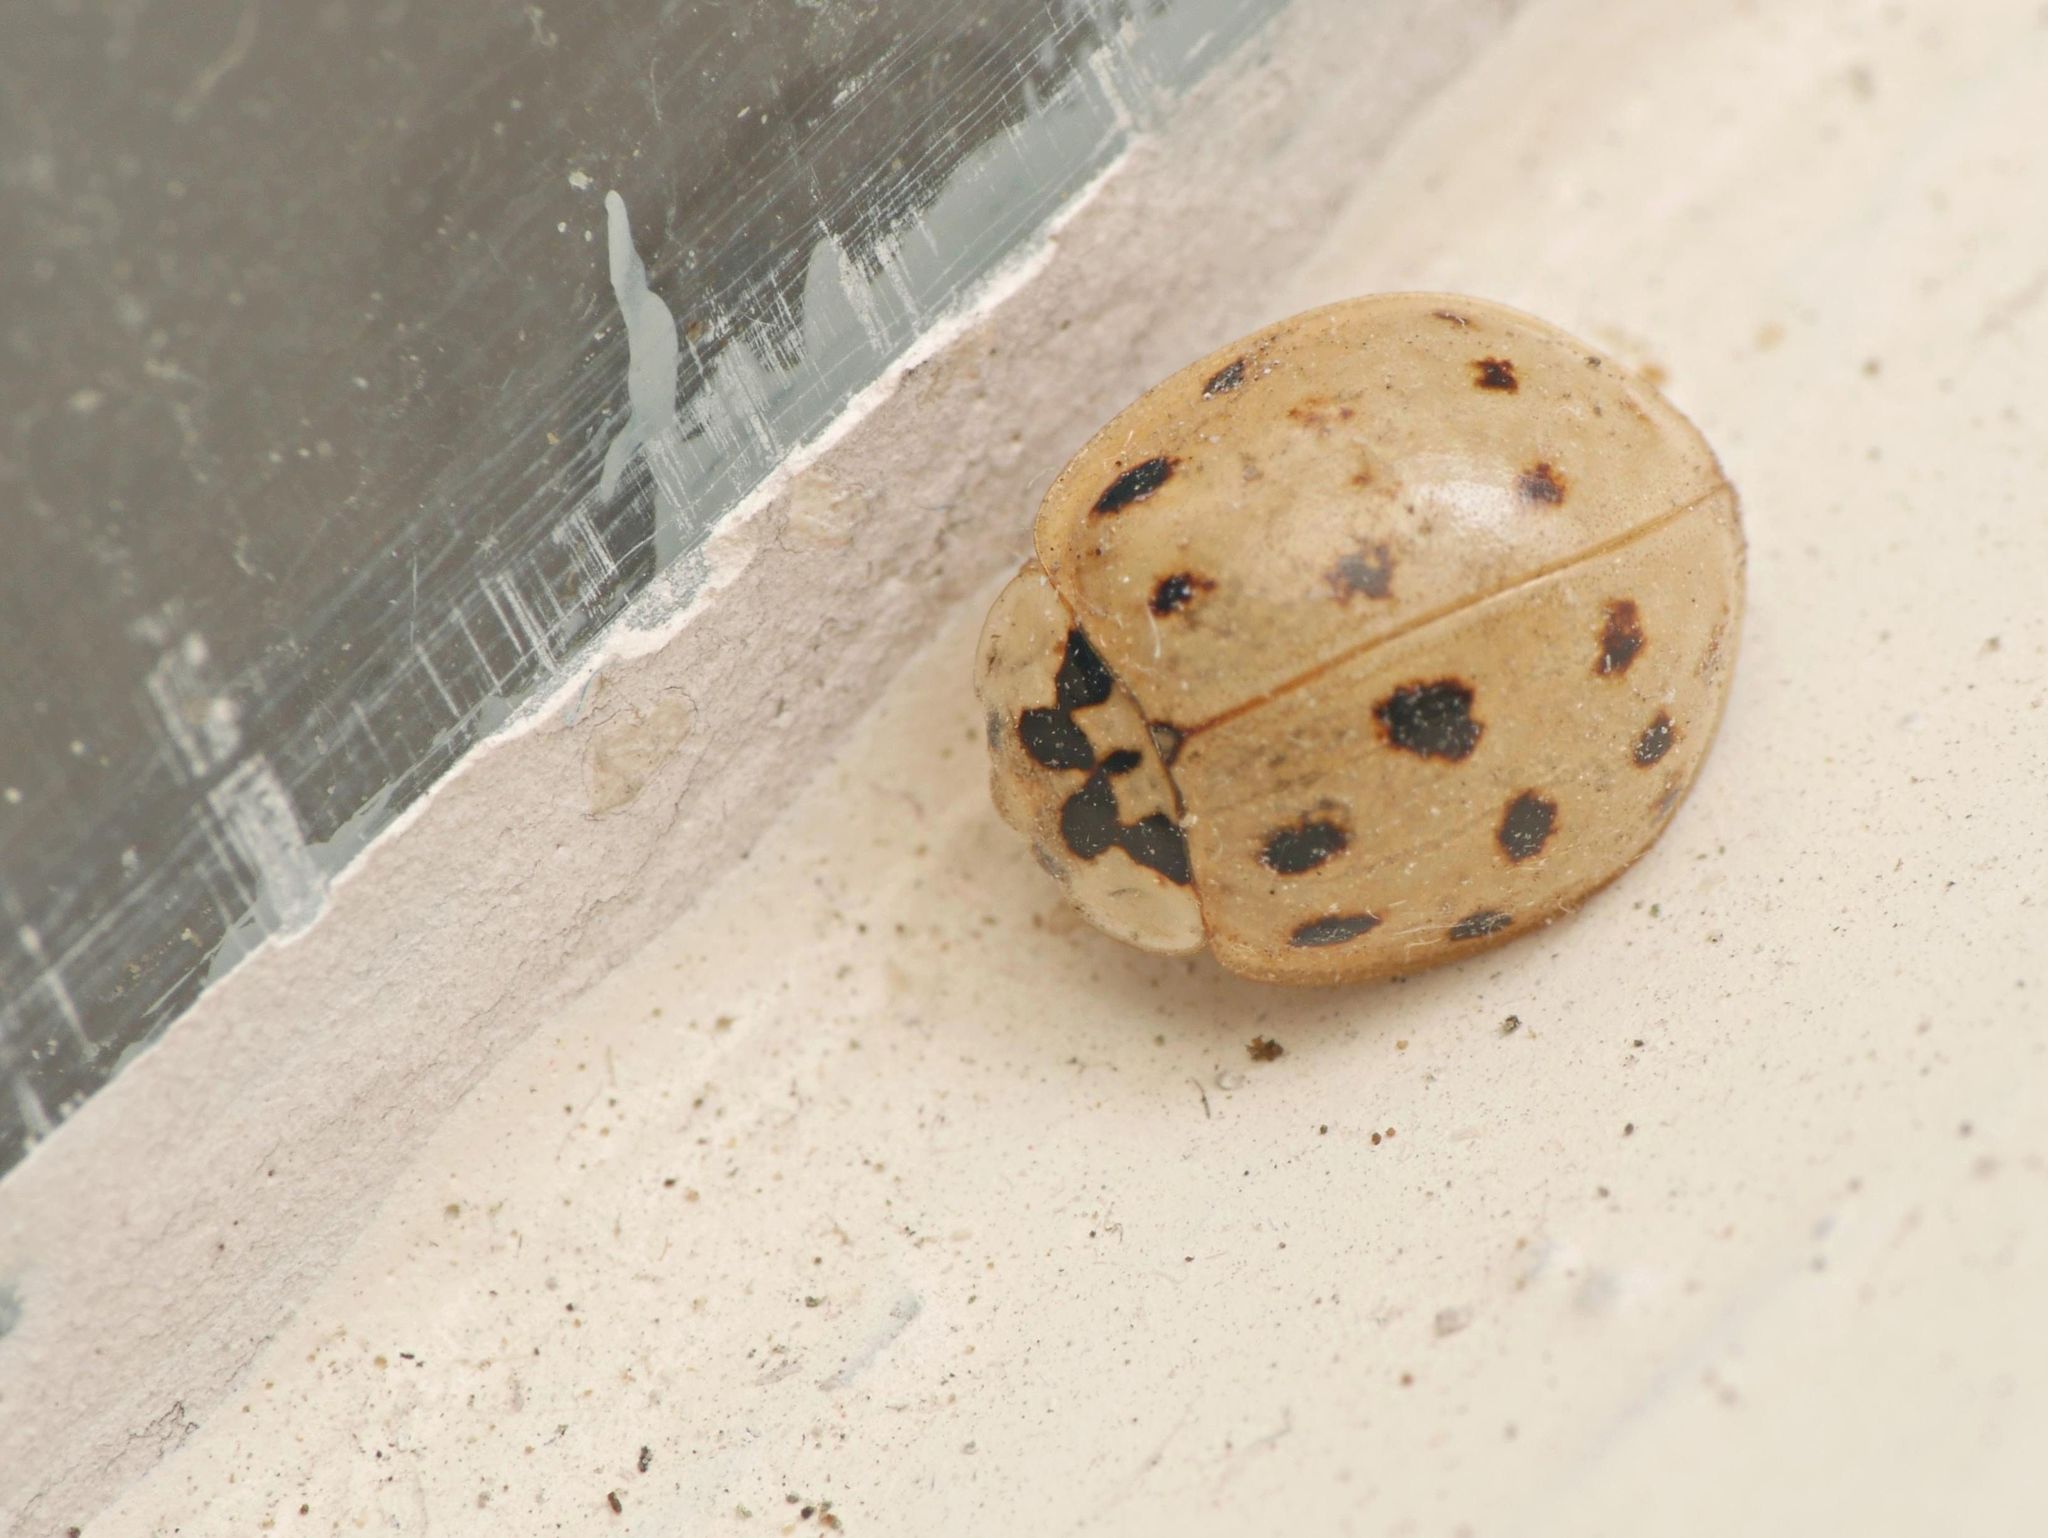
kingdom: Animalia
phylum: Arthropoda
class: Insecta
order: Coleoptera
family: Coccinellidae
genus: Harmonia
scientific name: Harmonia axyridis
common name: Harlequin ladybird
